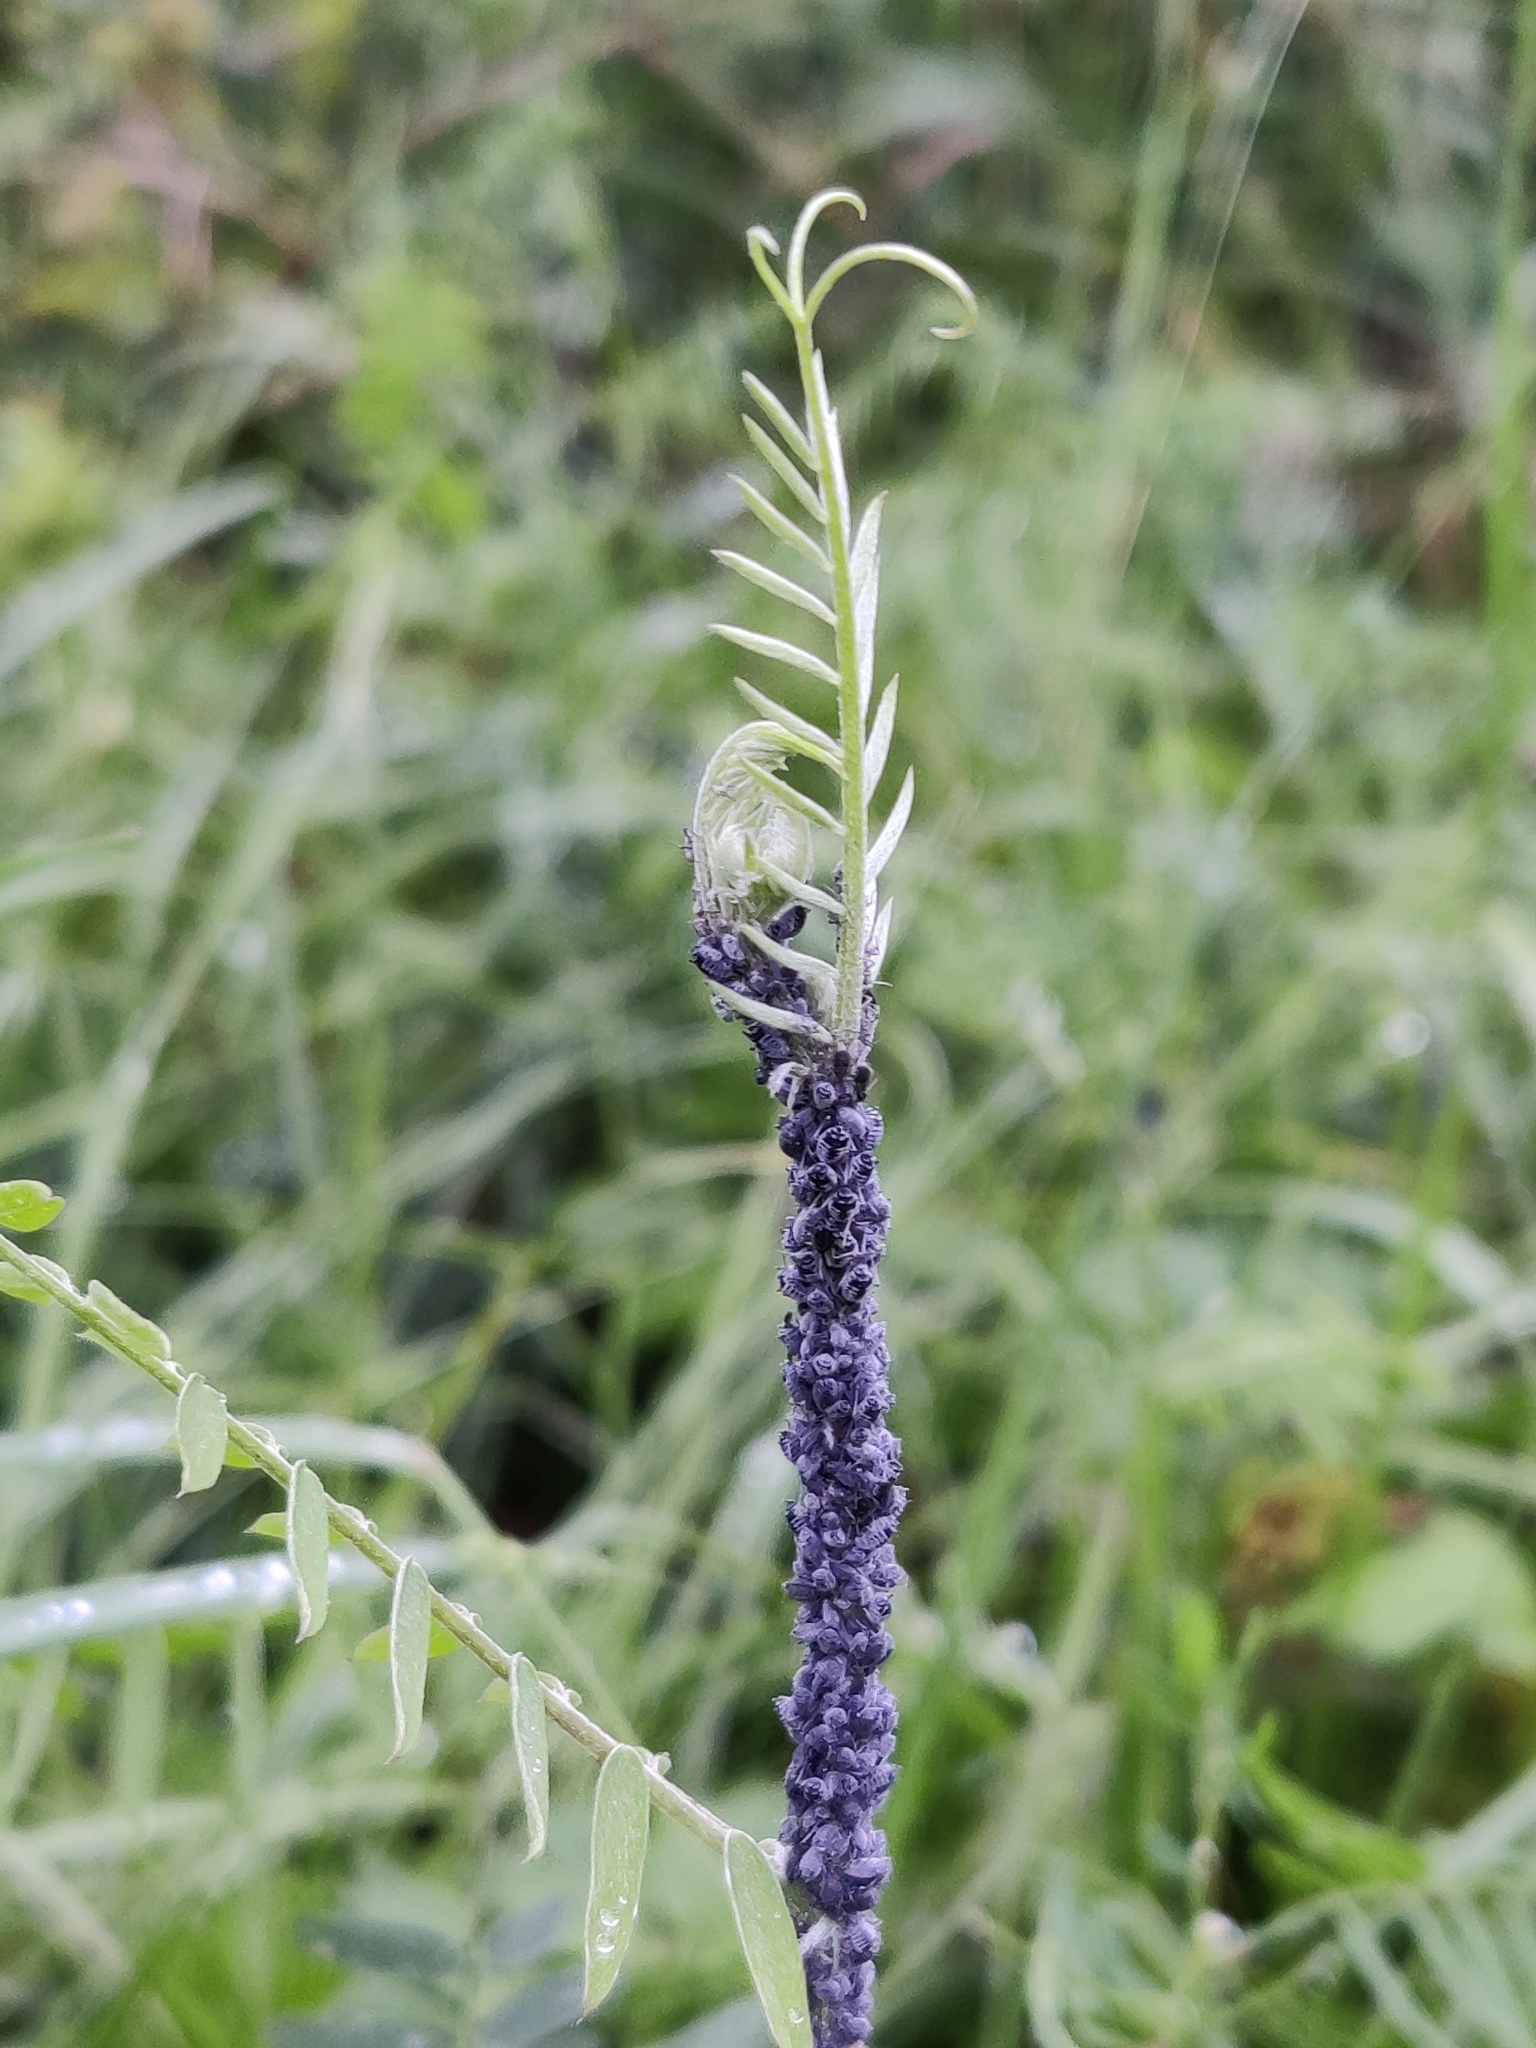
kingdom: Animalia
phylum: Arthropoda
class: Insecta
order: Hemiptera
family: Aphididae
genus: Aphis
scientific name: Aphis craccae
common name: Aphid
